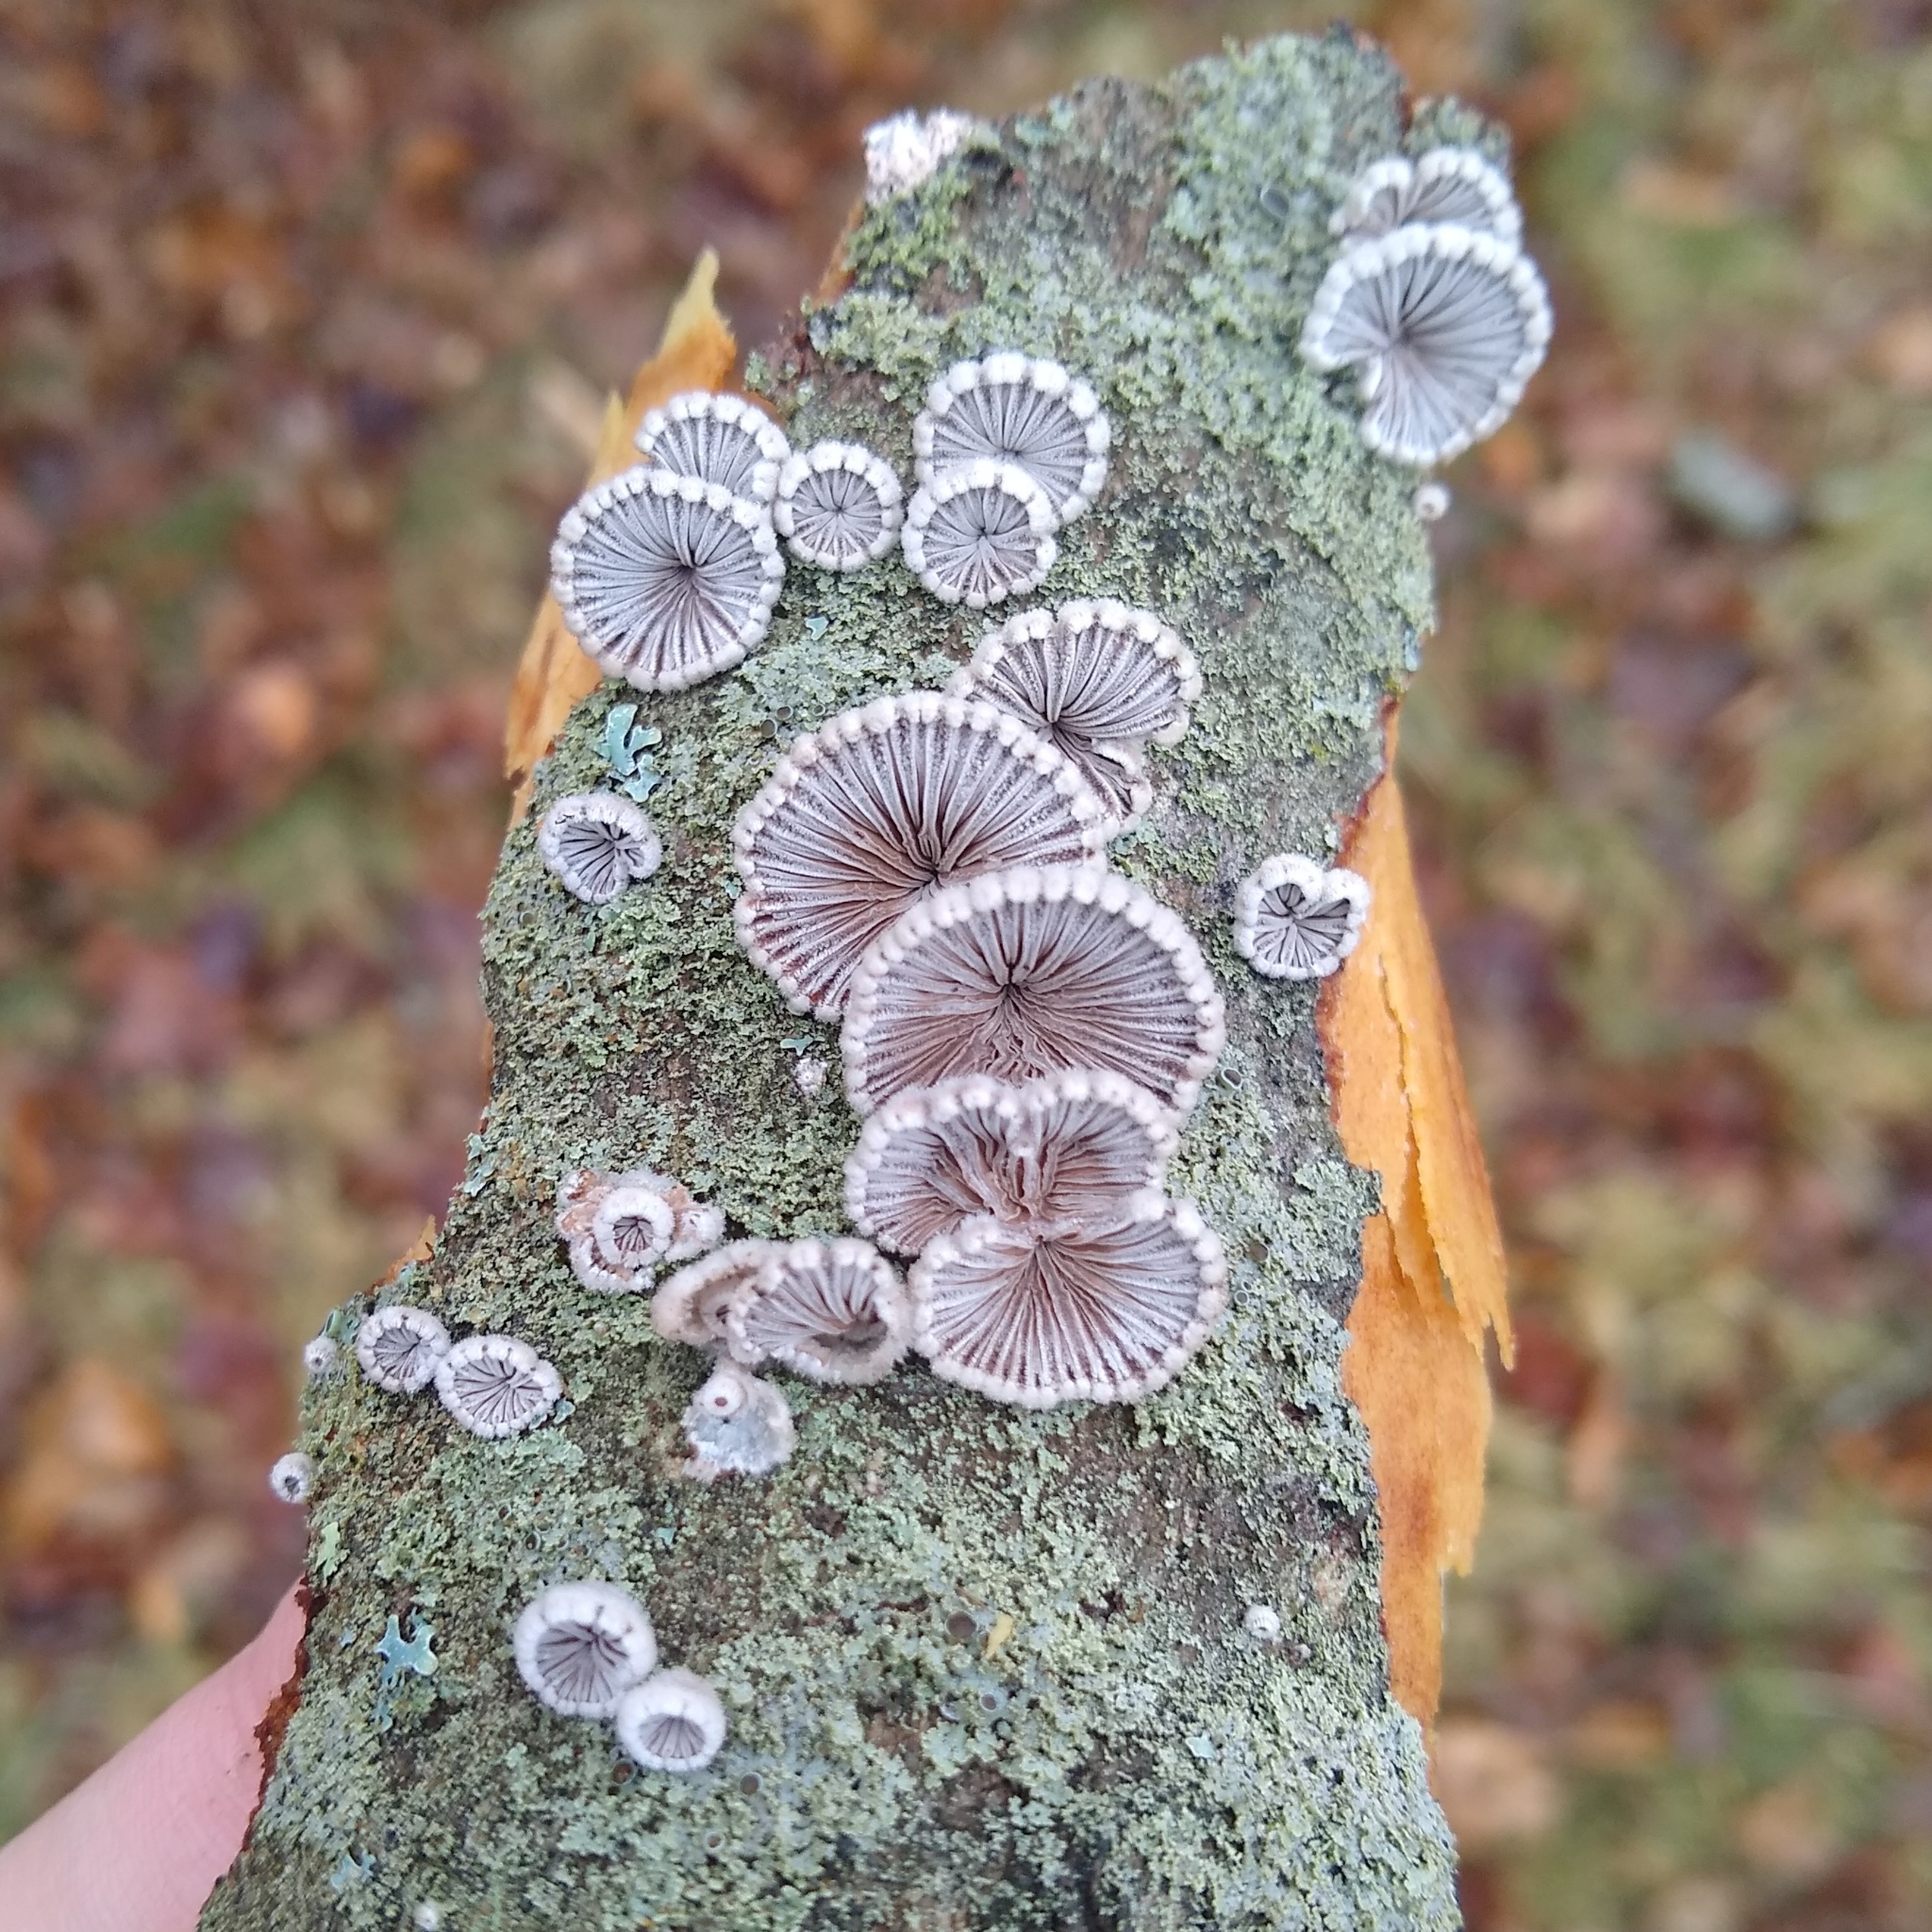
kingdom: Fungi
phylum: Basidiomycota
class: Agaricomycetes
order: Agaricales
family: Schizophyllaceae
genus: Schizophyllum
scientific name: Schizophyllum commune
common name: Common porecrust
